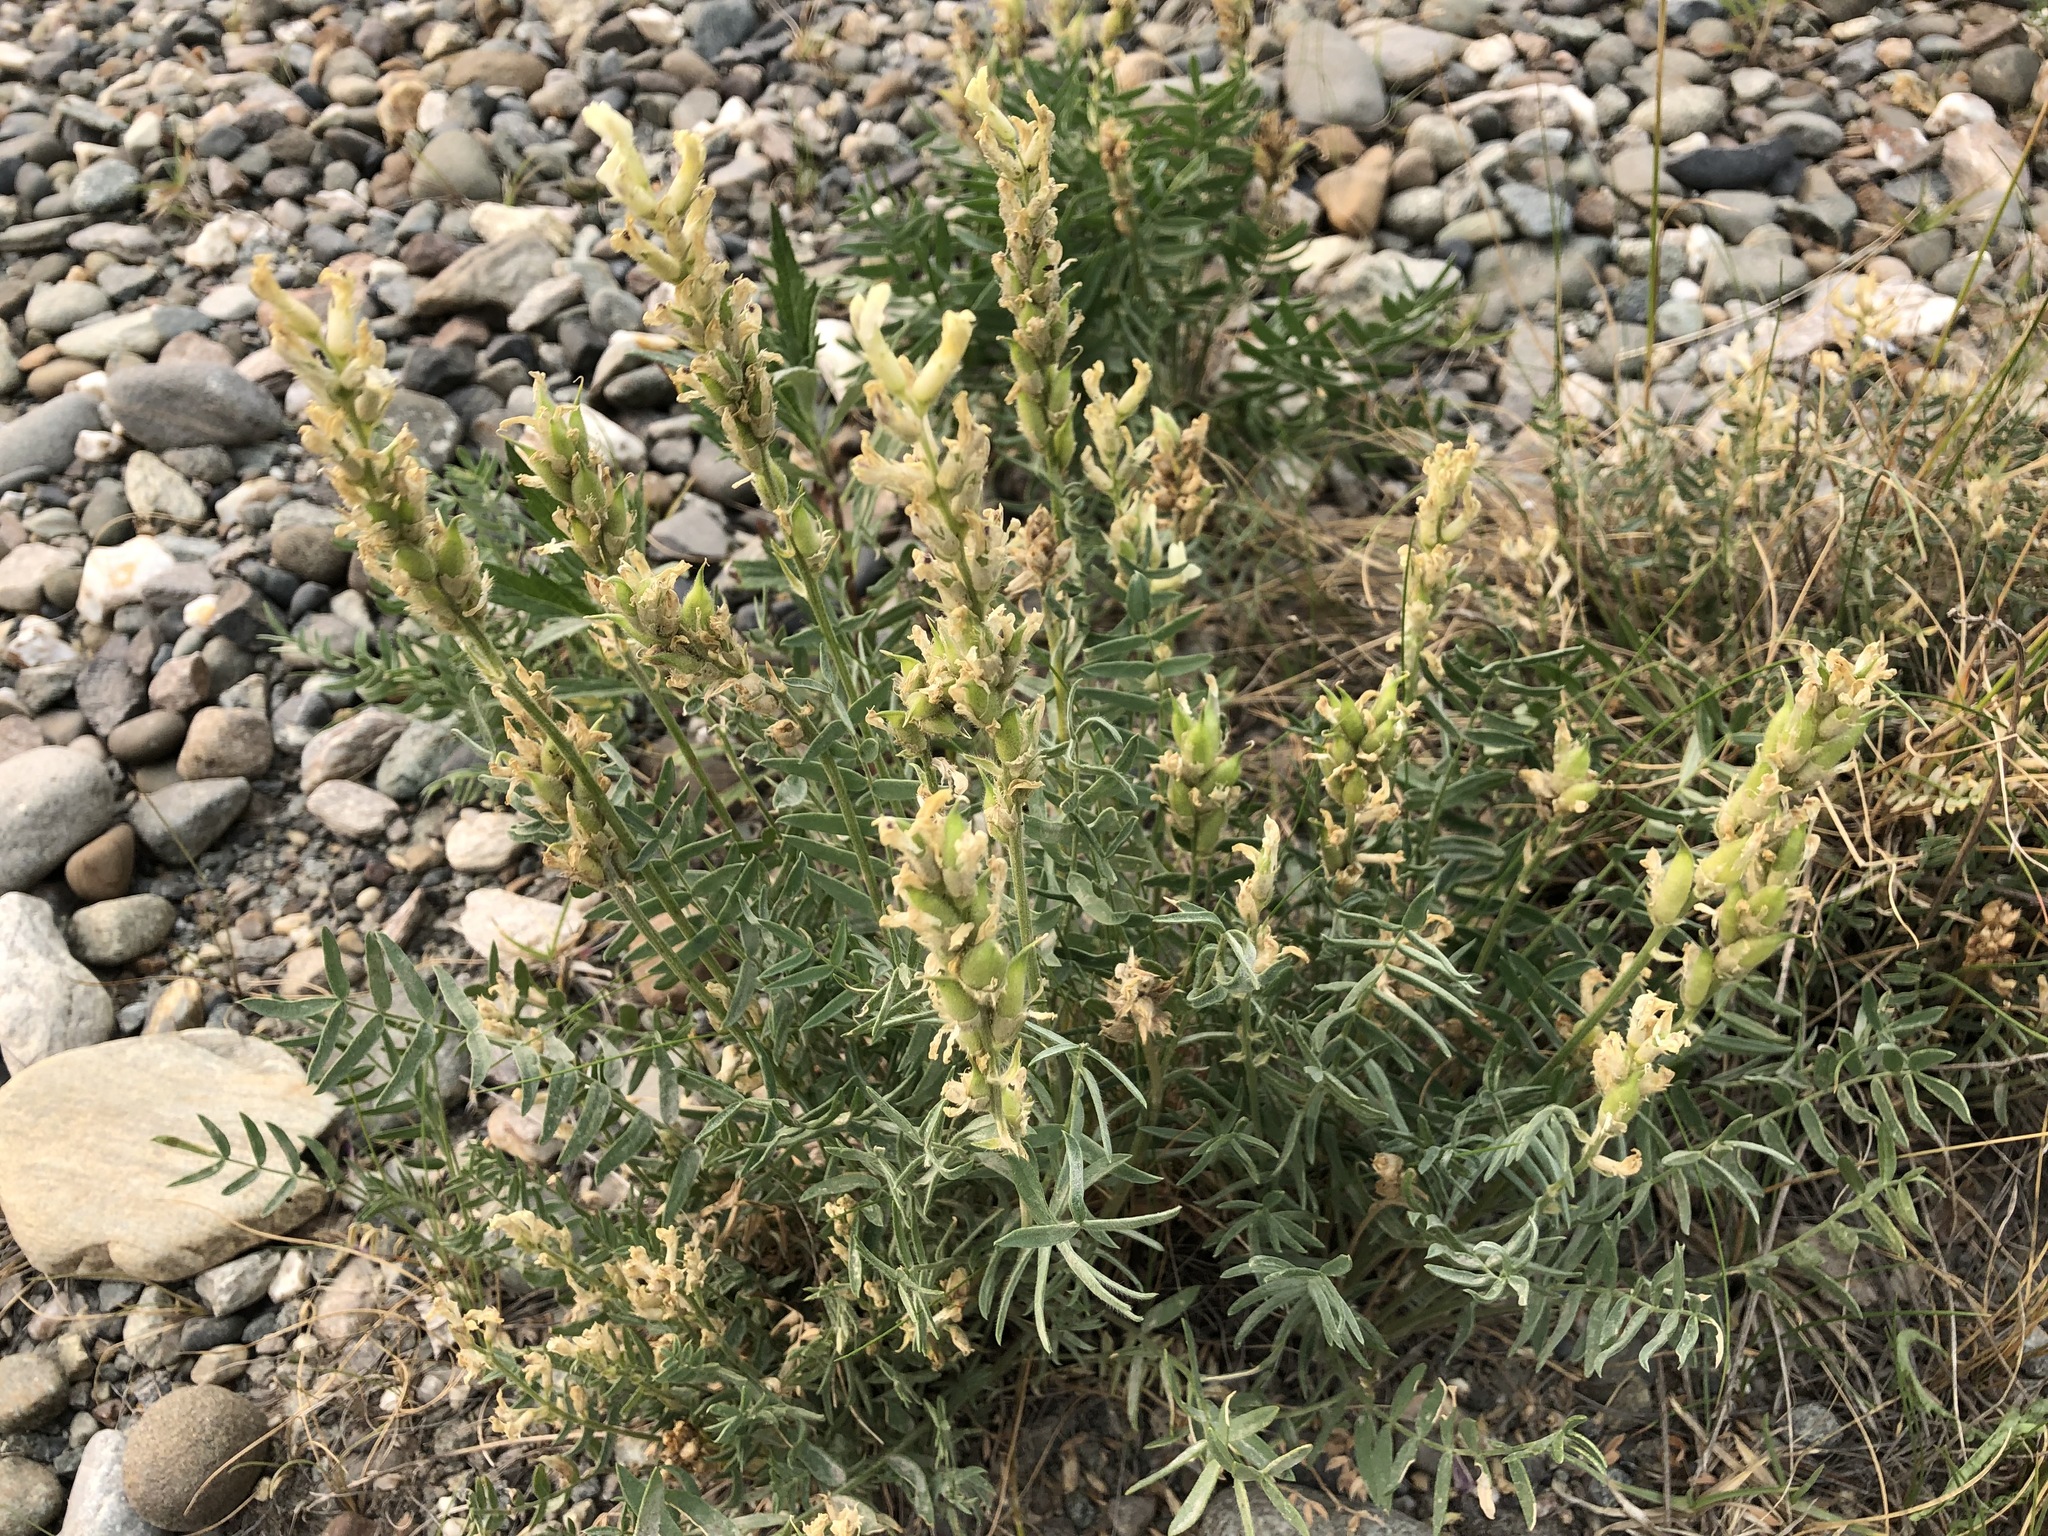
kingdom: Plantae
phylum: Tracheophyta
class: Magnoliopsida
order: Fabales
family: Fabaceae
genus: Oxytropis
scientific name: Oxytropis campestris
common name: Field locoweed
